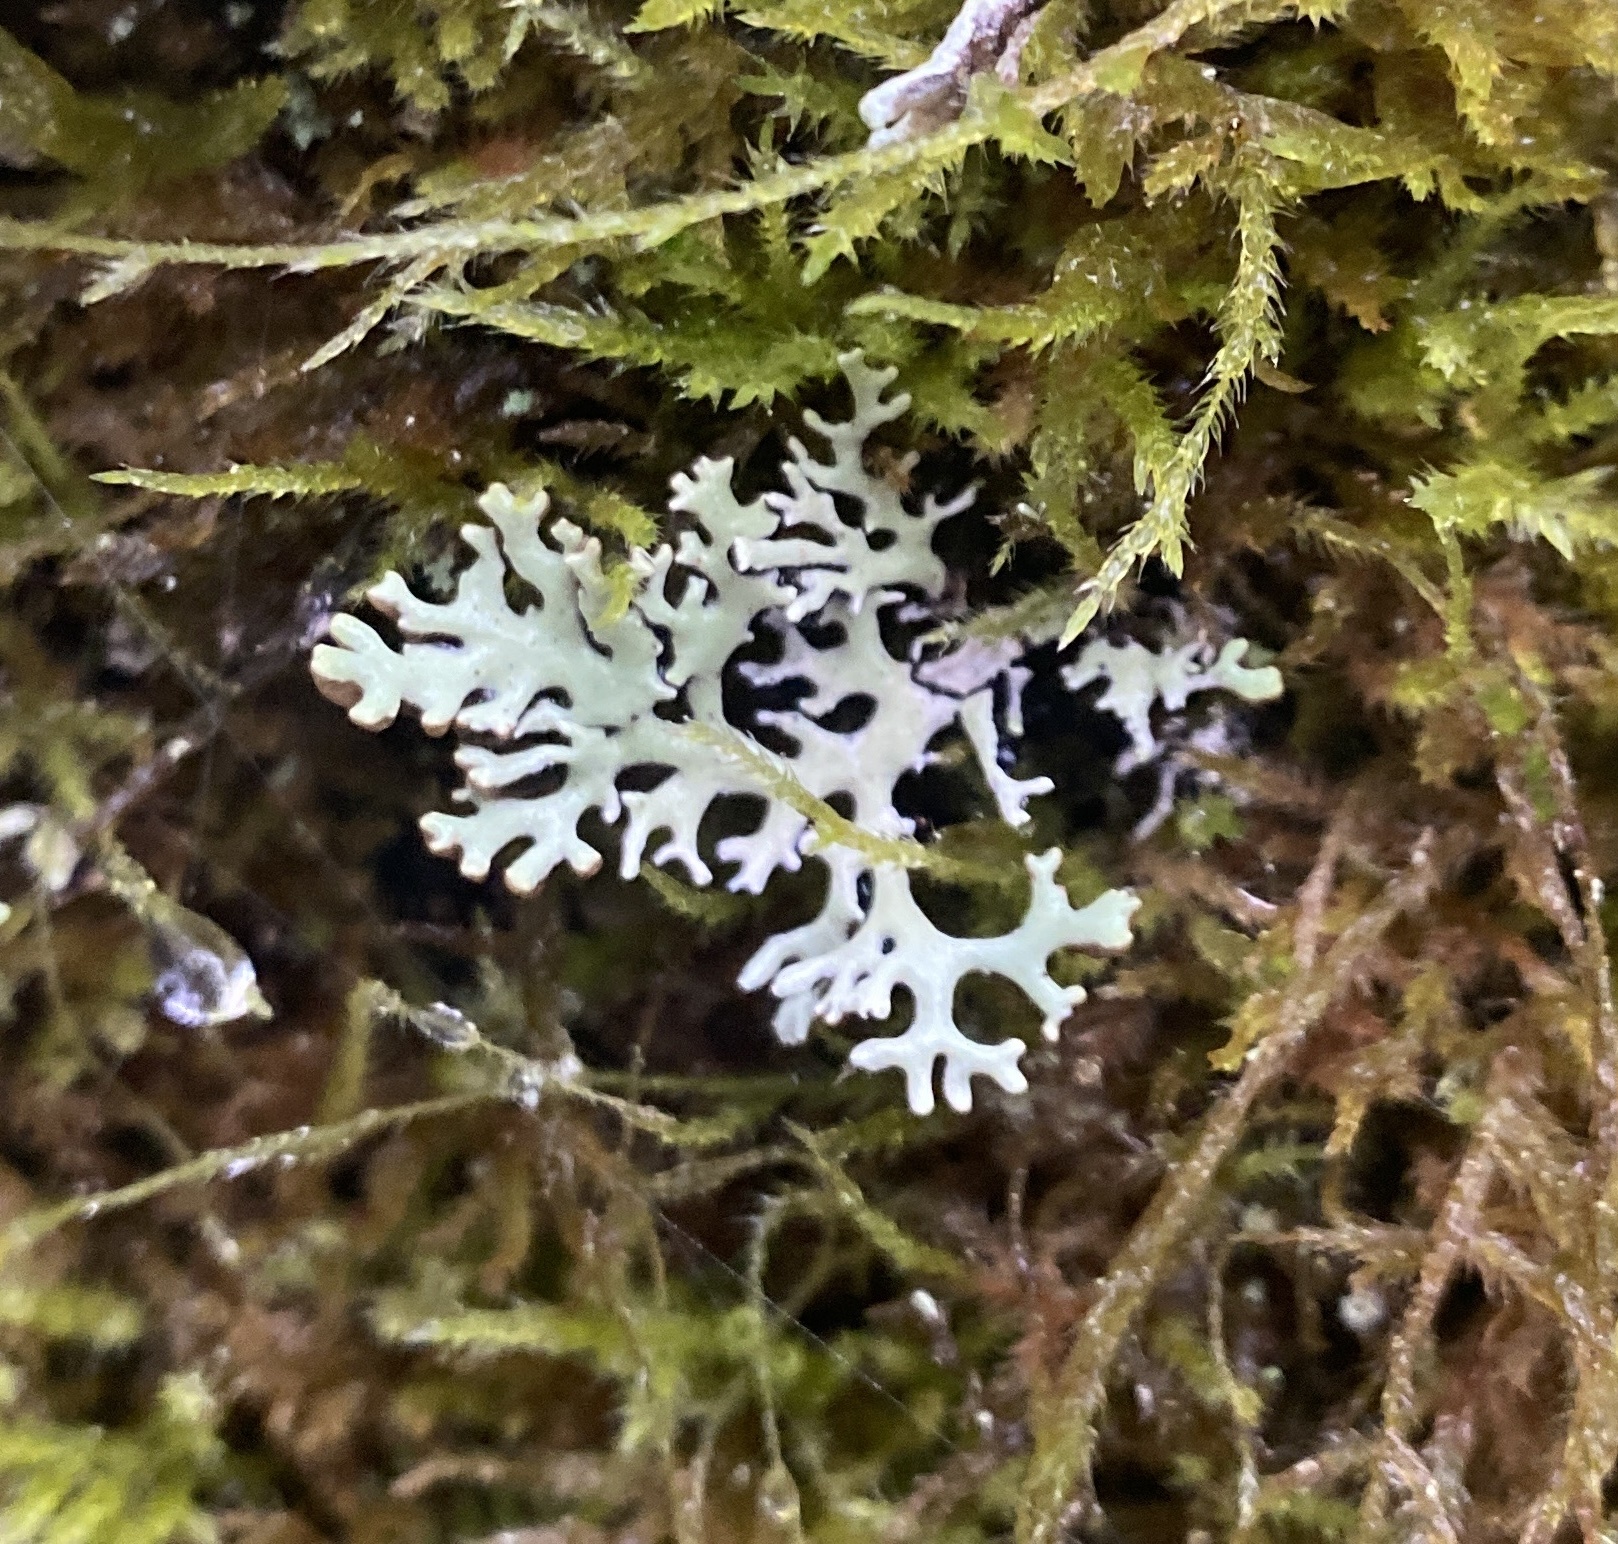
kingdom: Fungi
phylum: Ascomycota
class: Lecanoromycetes
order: Lecanorales
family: Parmeliaceae
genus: Hypogymnia
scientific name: Hypogymnia physodes
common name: Dark crottle
